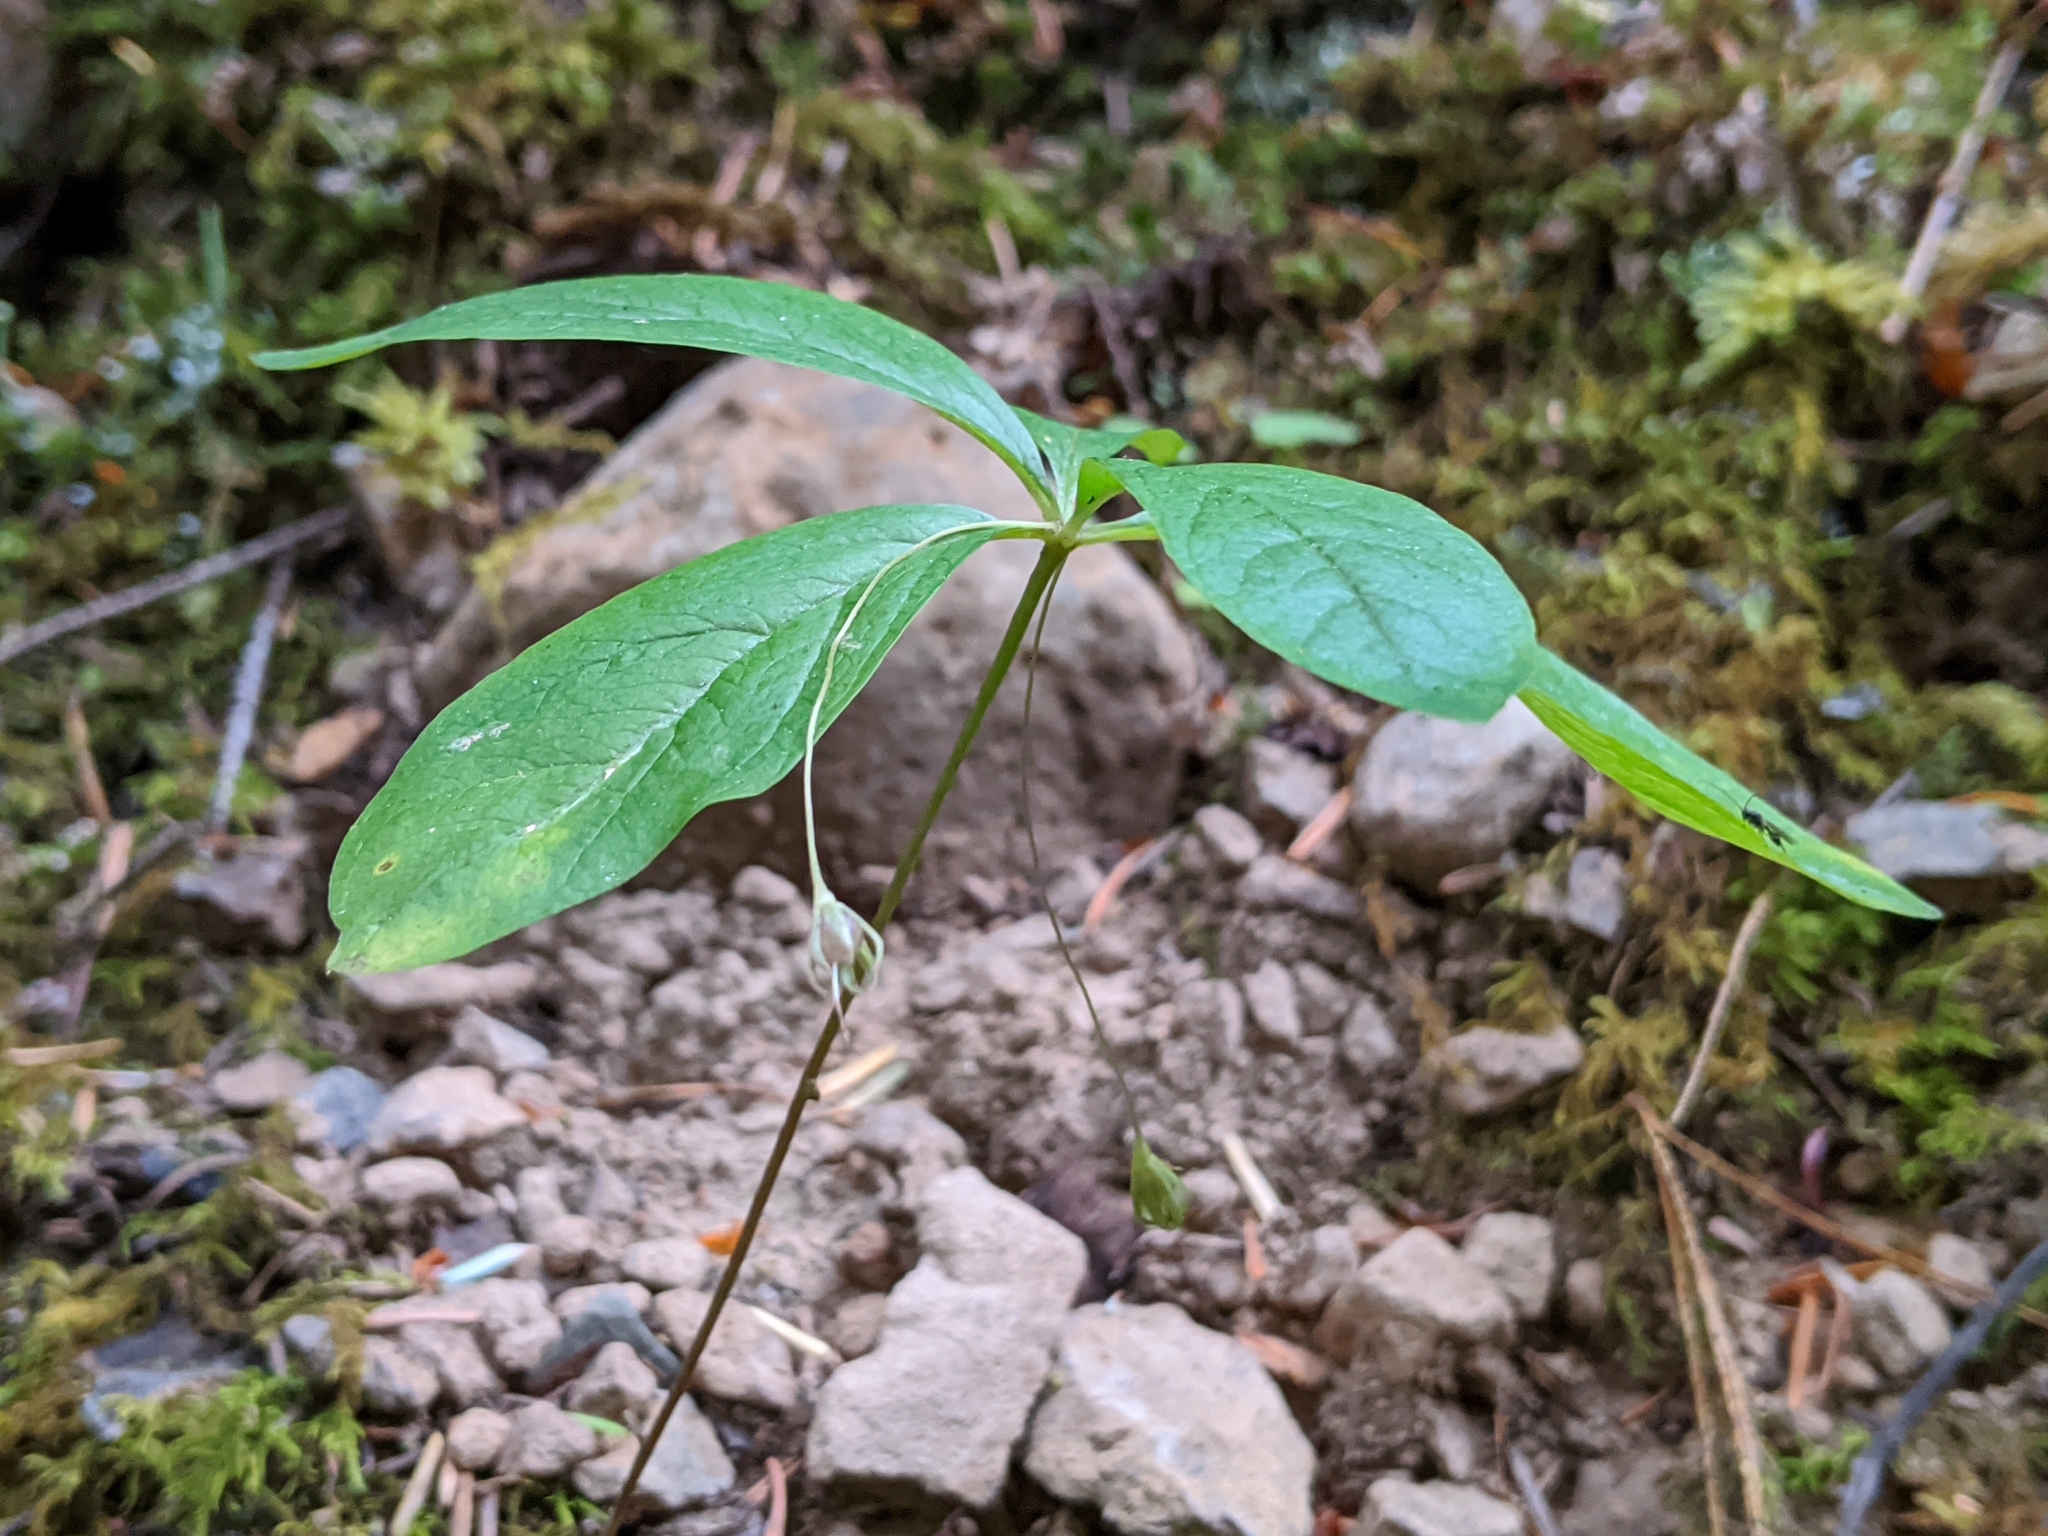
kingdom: Plantae
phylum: Tracheophyta
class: Magnoliopsida
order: Ericales
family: Primulaceae
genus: Lysimachia
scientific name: Lysimachia latifolia
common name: Pacific starflower
